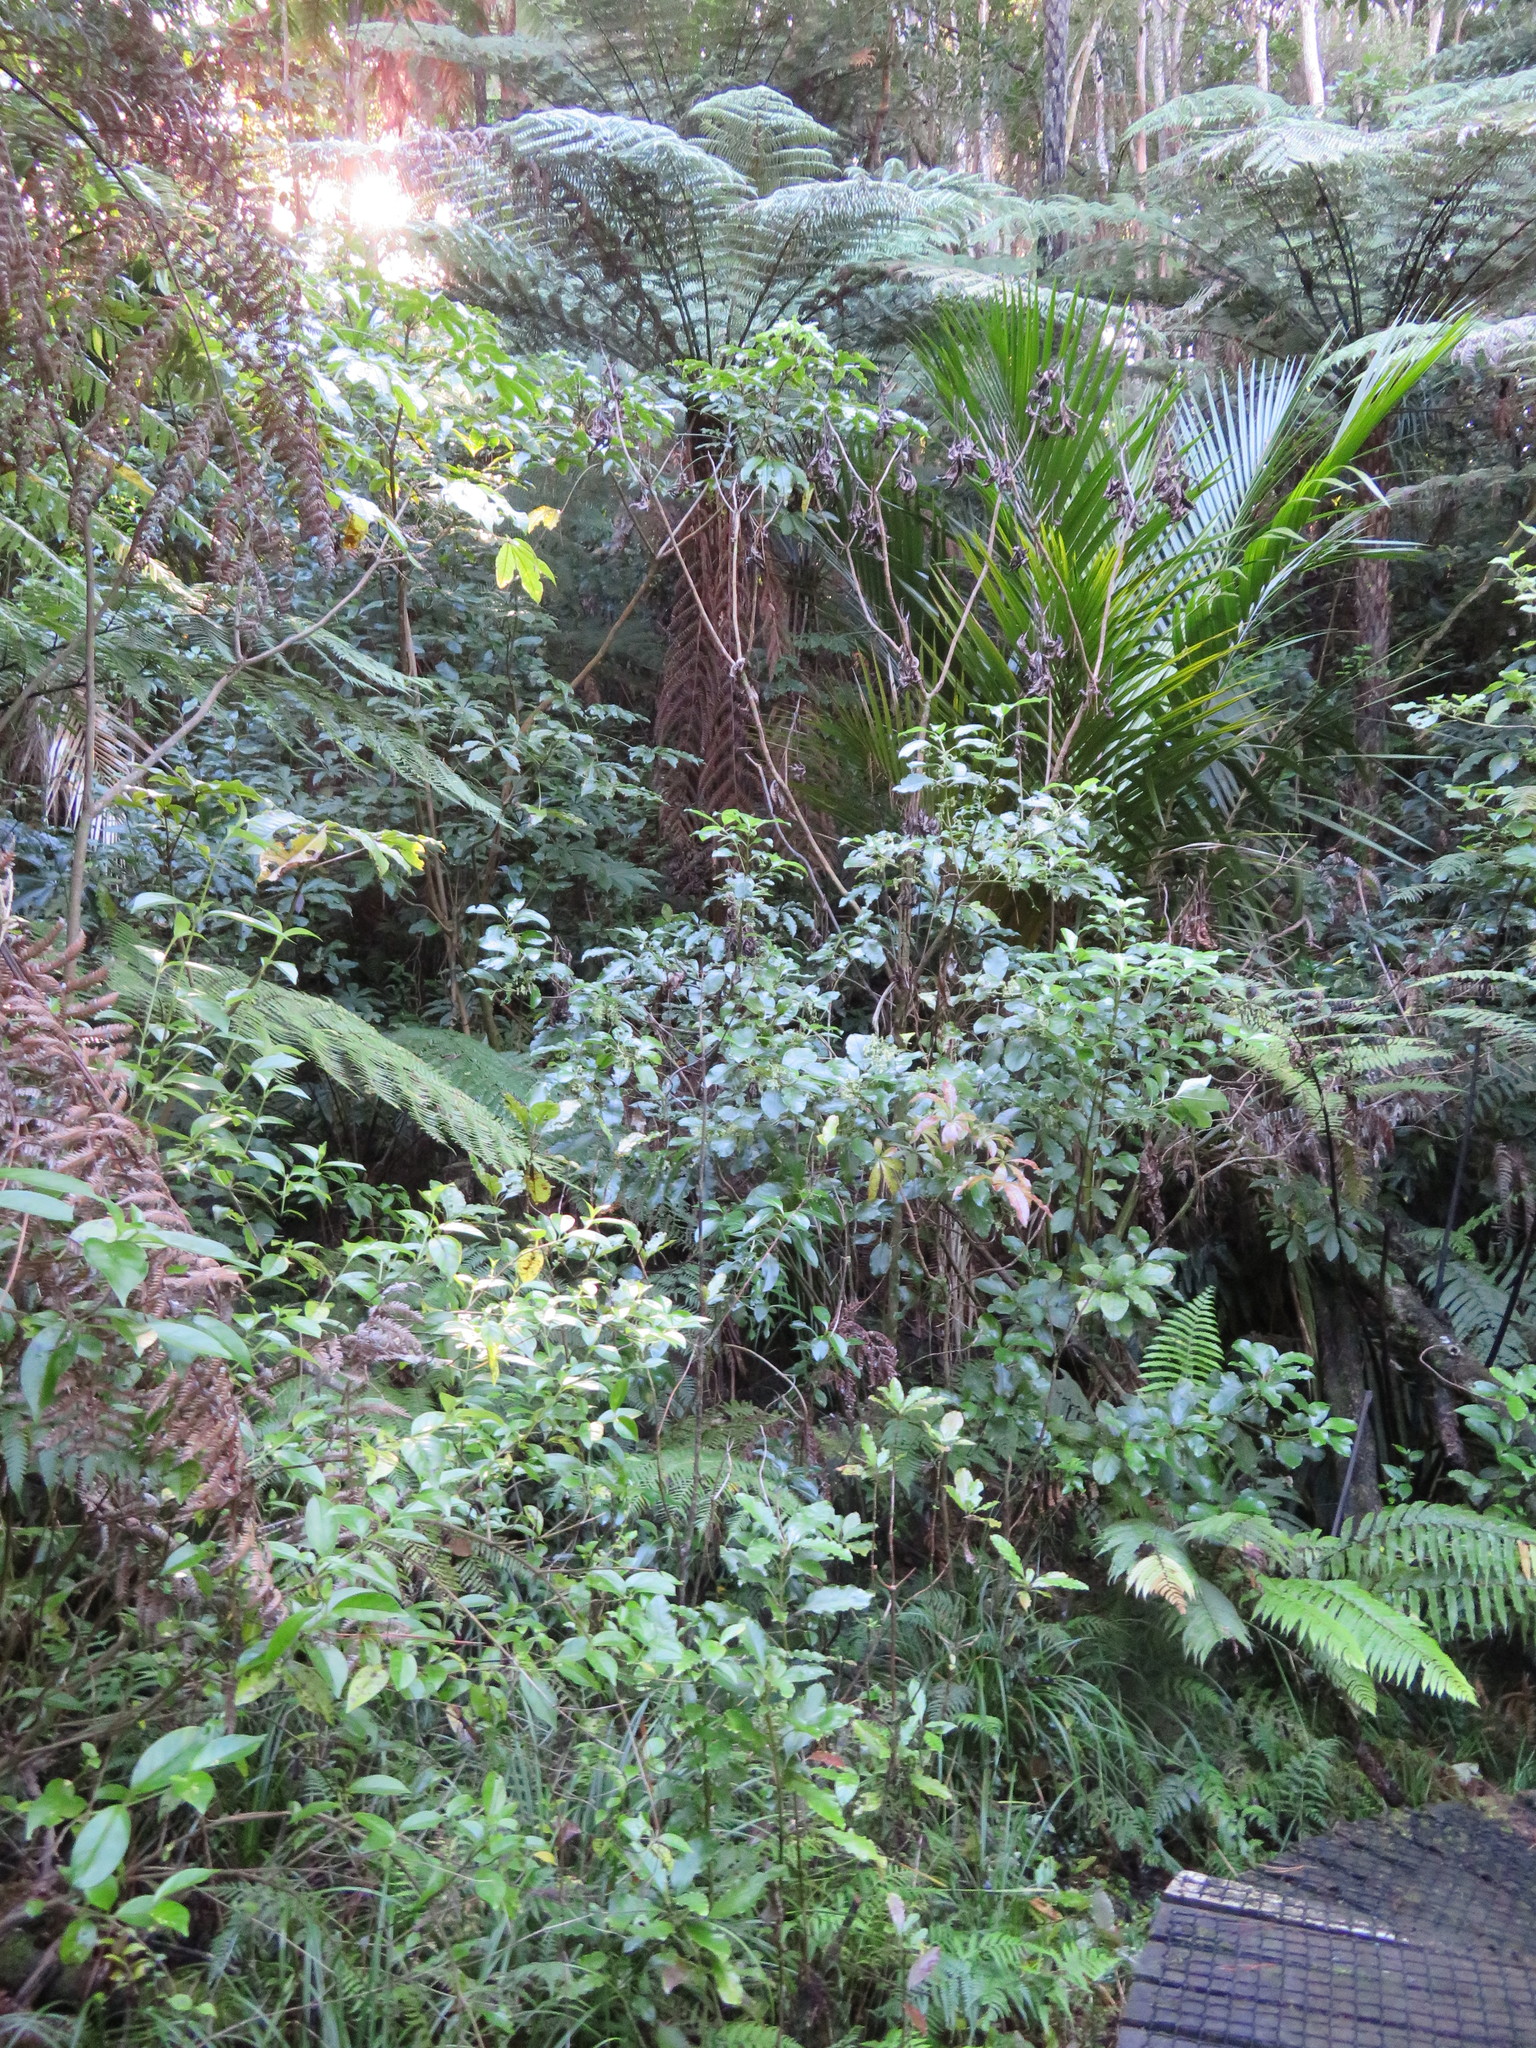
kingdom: Plantae
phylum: Tracheophyta
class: Liliopsida
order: Arecales
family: Arecaceae
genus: Rhopalostylis
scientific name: Rhopalostylis sapida
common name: Feather-duster palm
